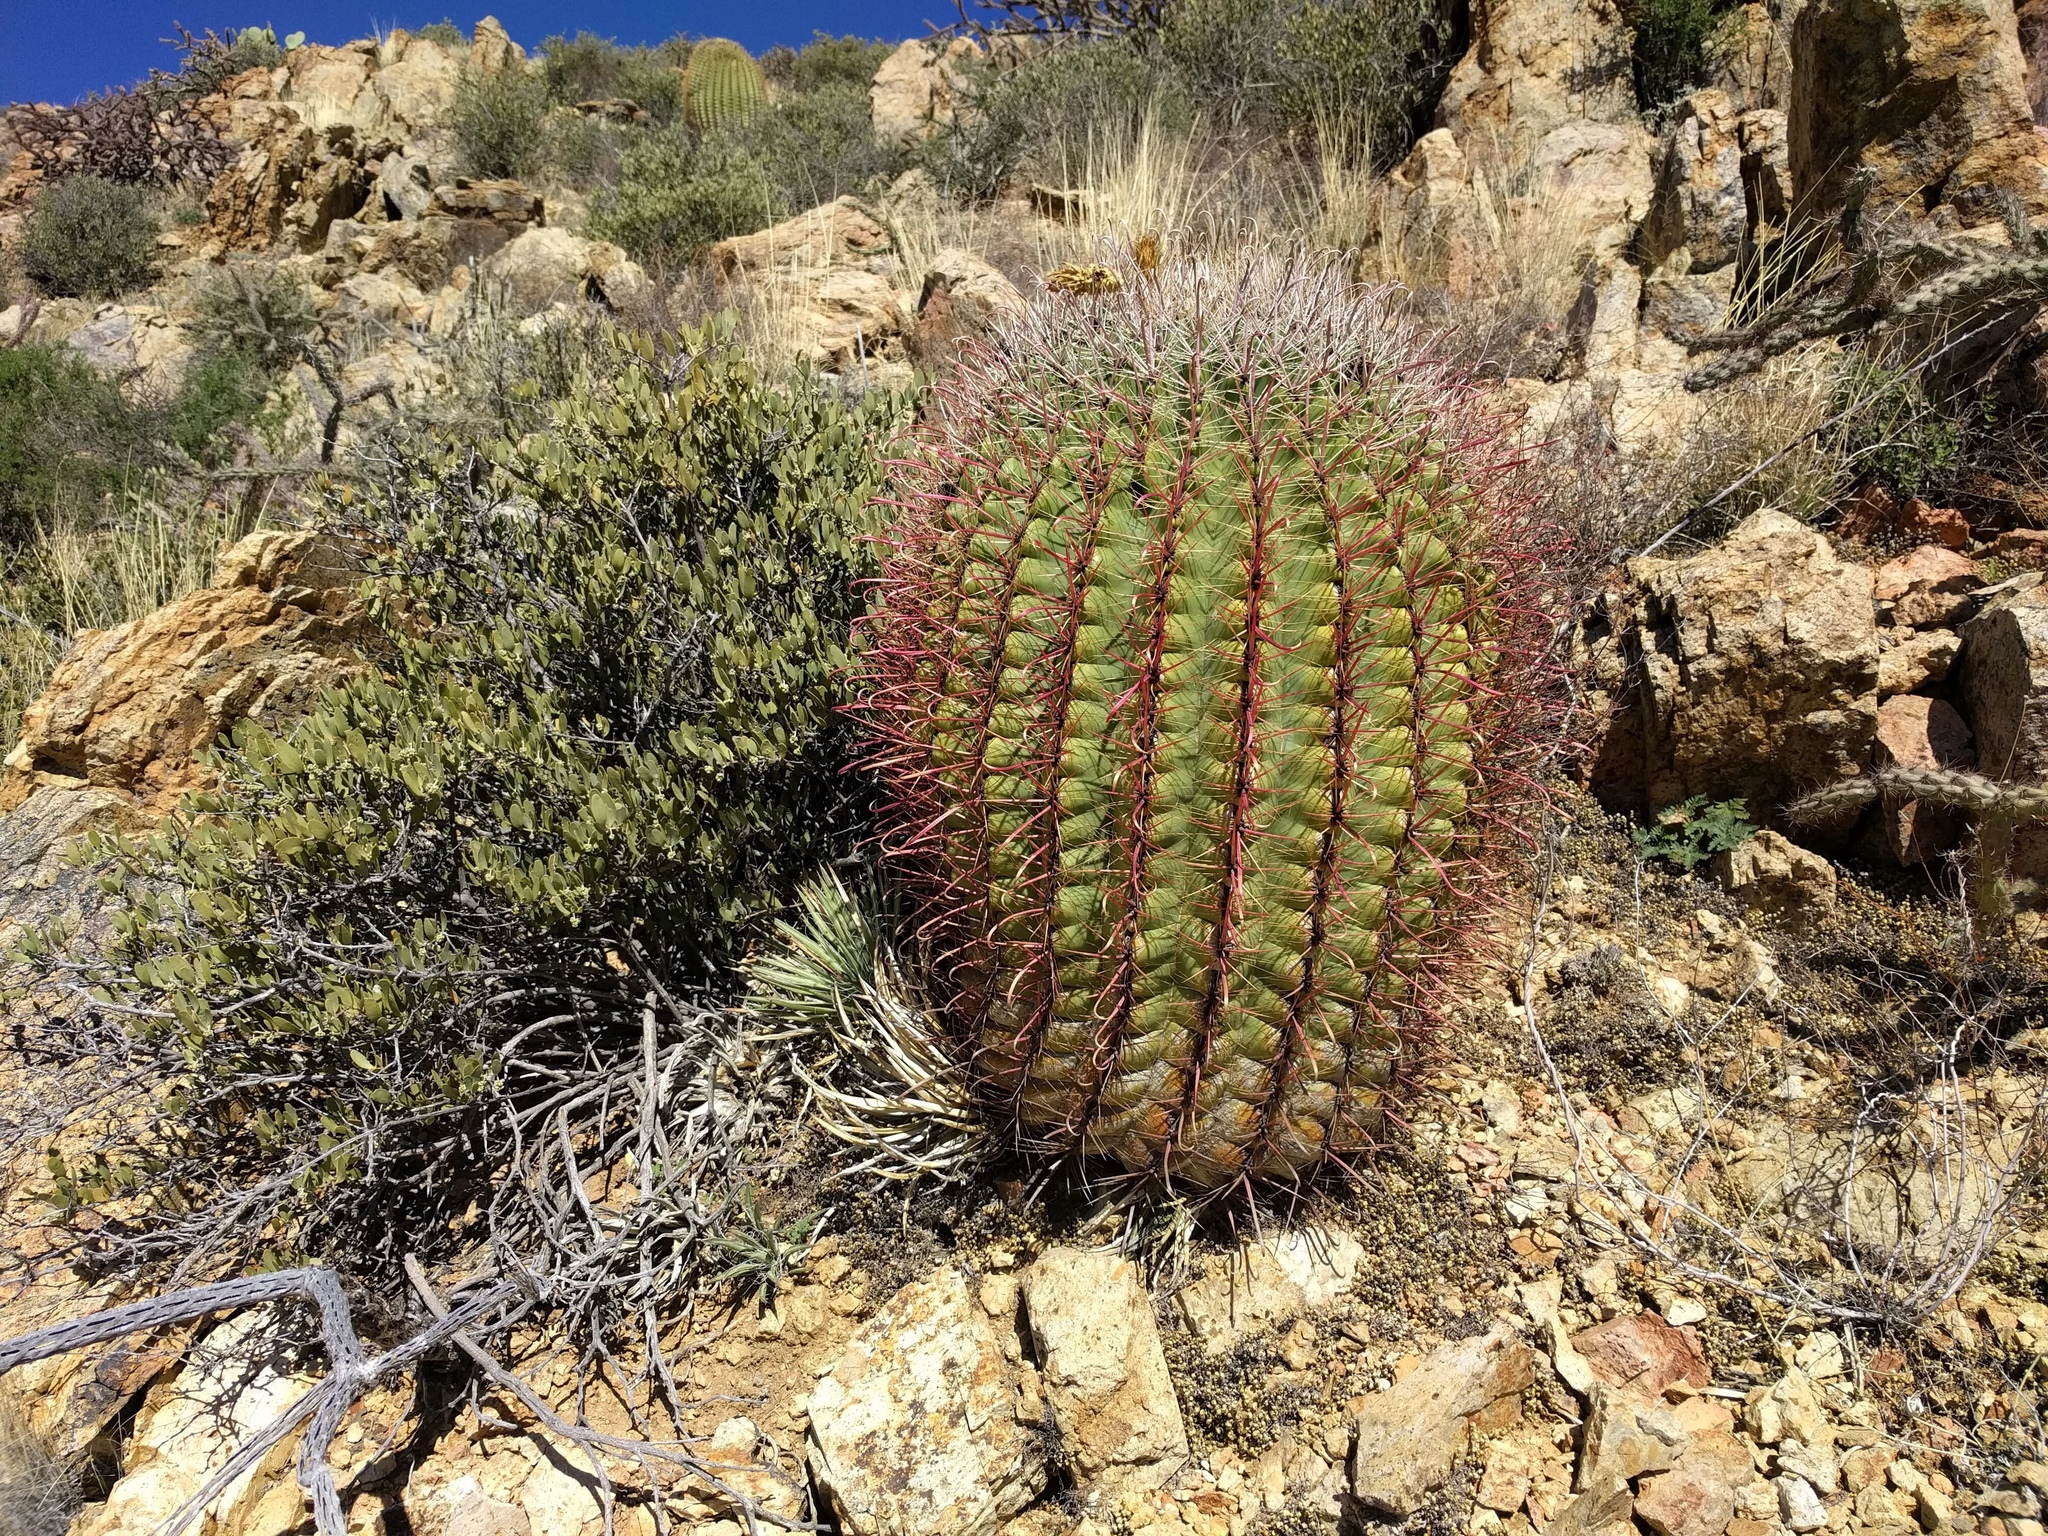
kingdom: Plantae
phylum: Tracheophyta
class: Magnoliopsida
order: Caryophyllales
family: Cactaceae
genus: Ferocactus
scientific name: Ferocactus wislizeni
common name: Candy barrel cactus
